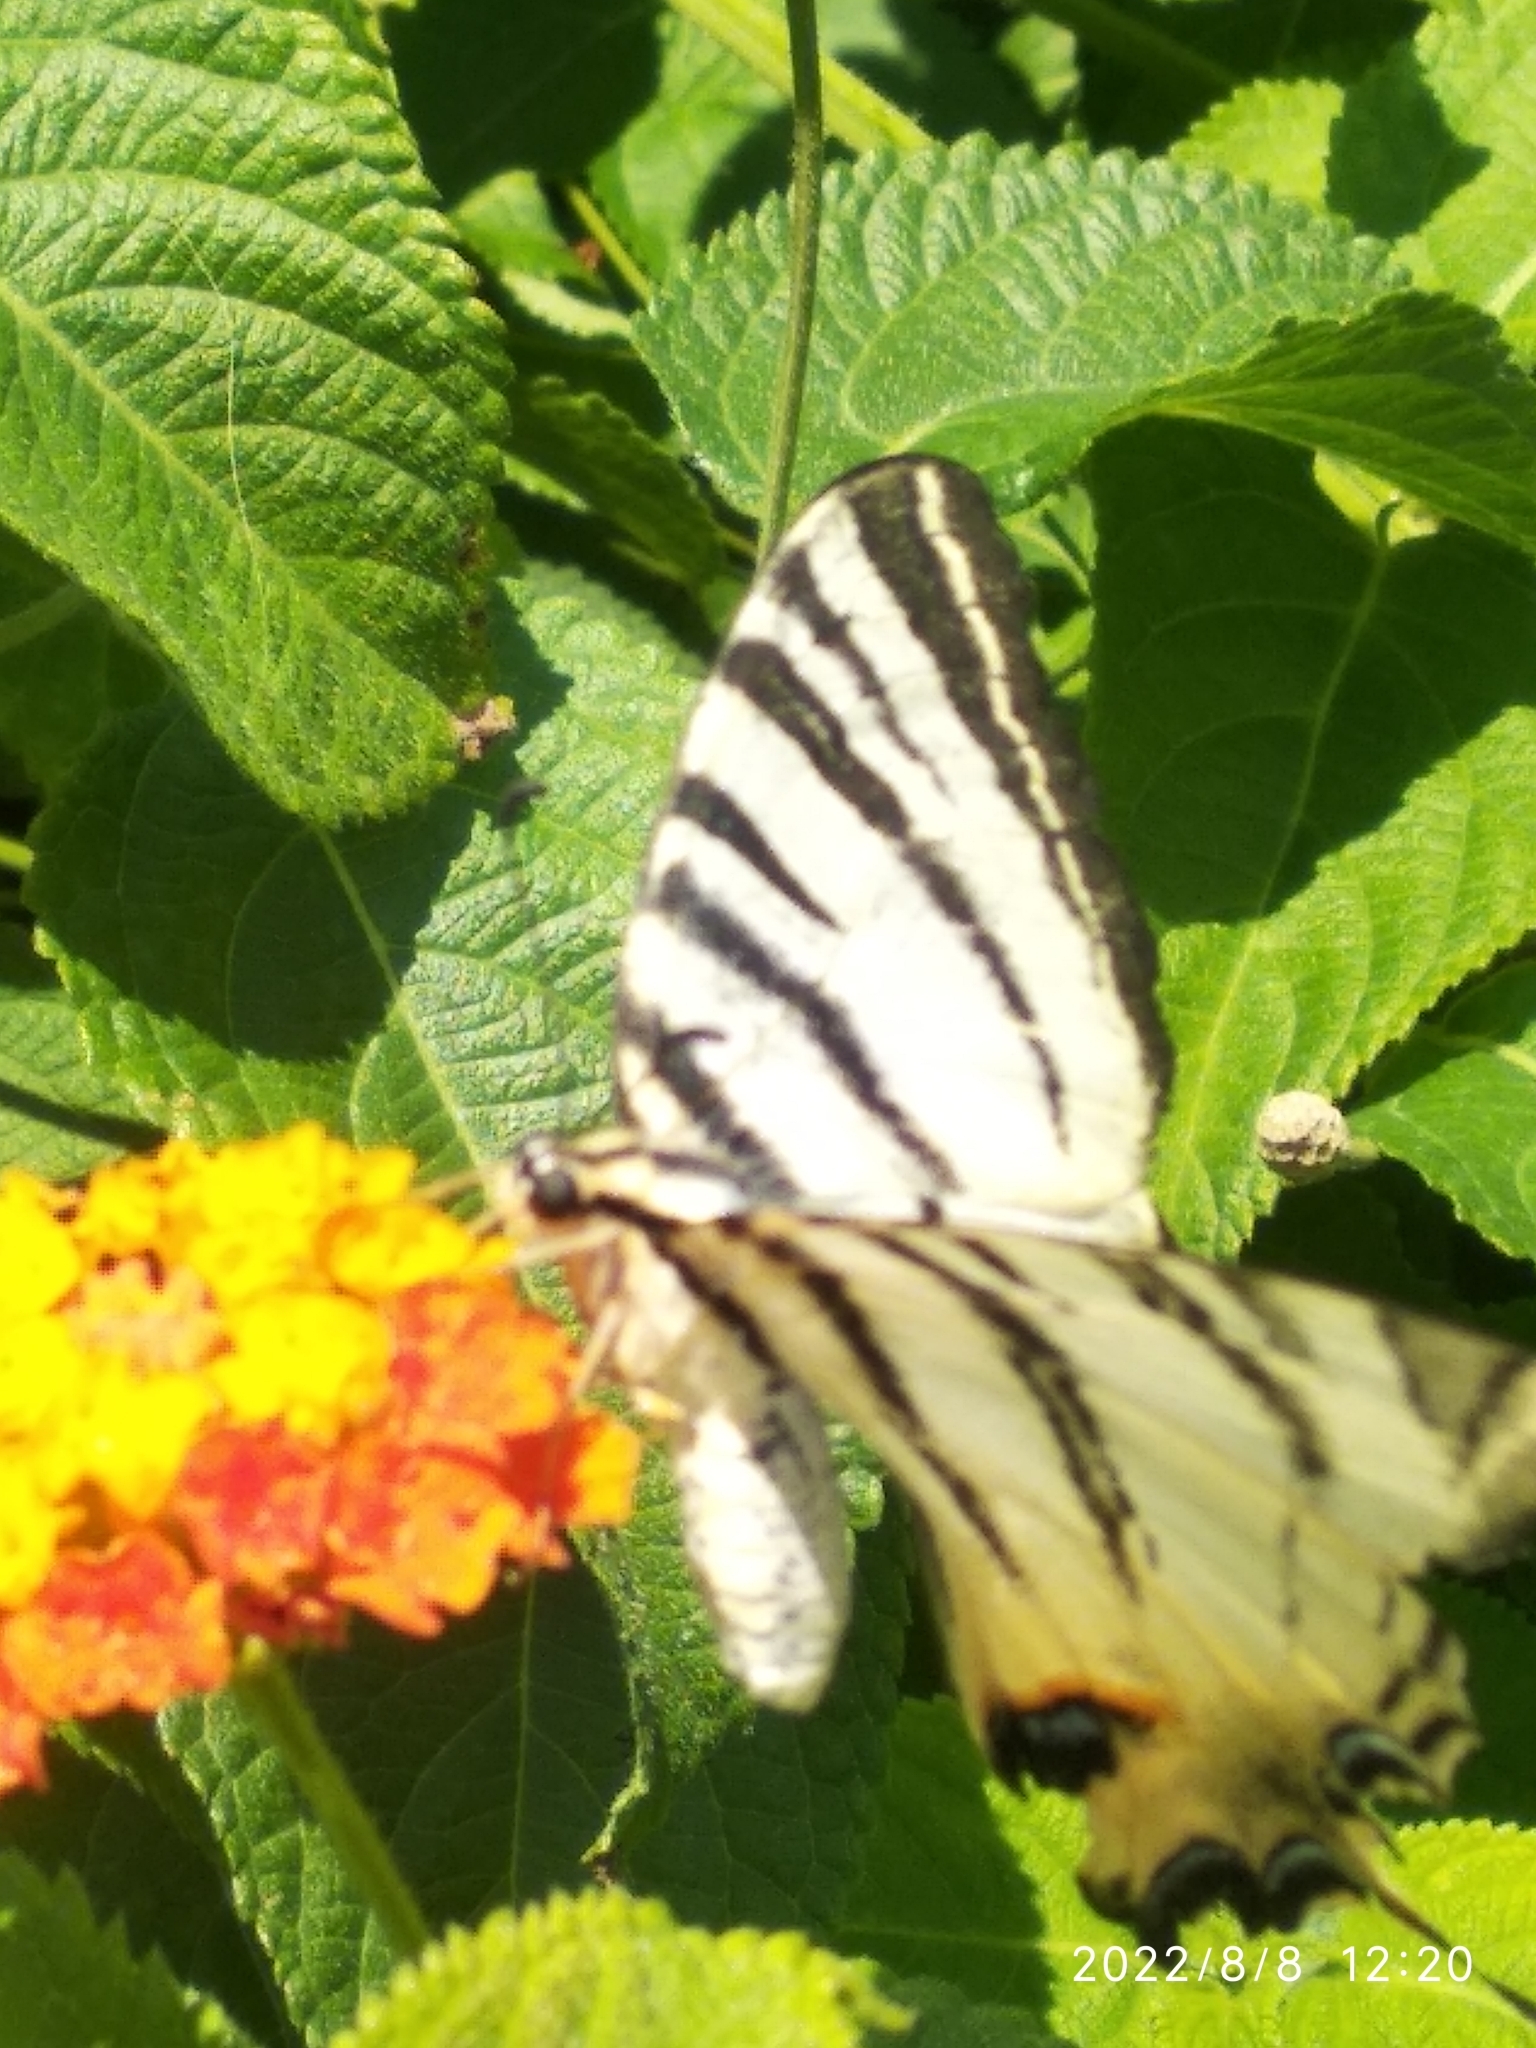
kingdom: Animalia
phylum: Arthropoda
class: Insecta
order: Lepidoptera
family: Papilionidae
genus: Iphiclides
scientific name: Iphiclides podalirius
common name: Scarce swallowtail
